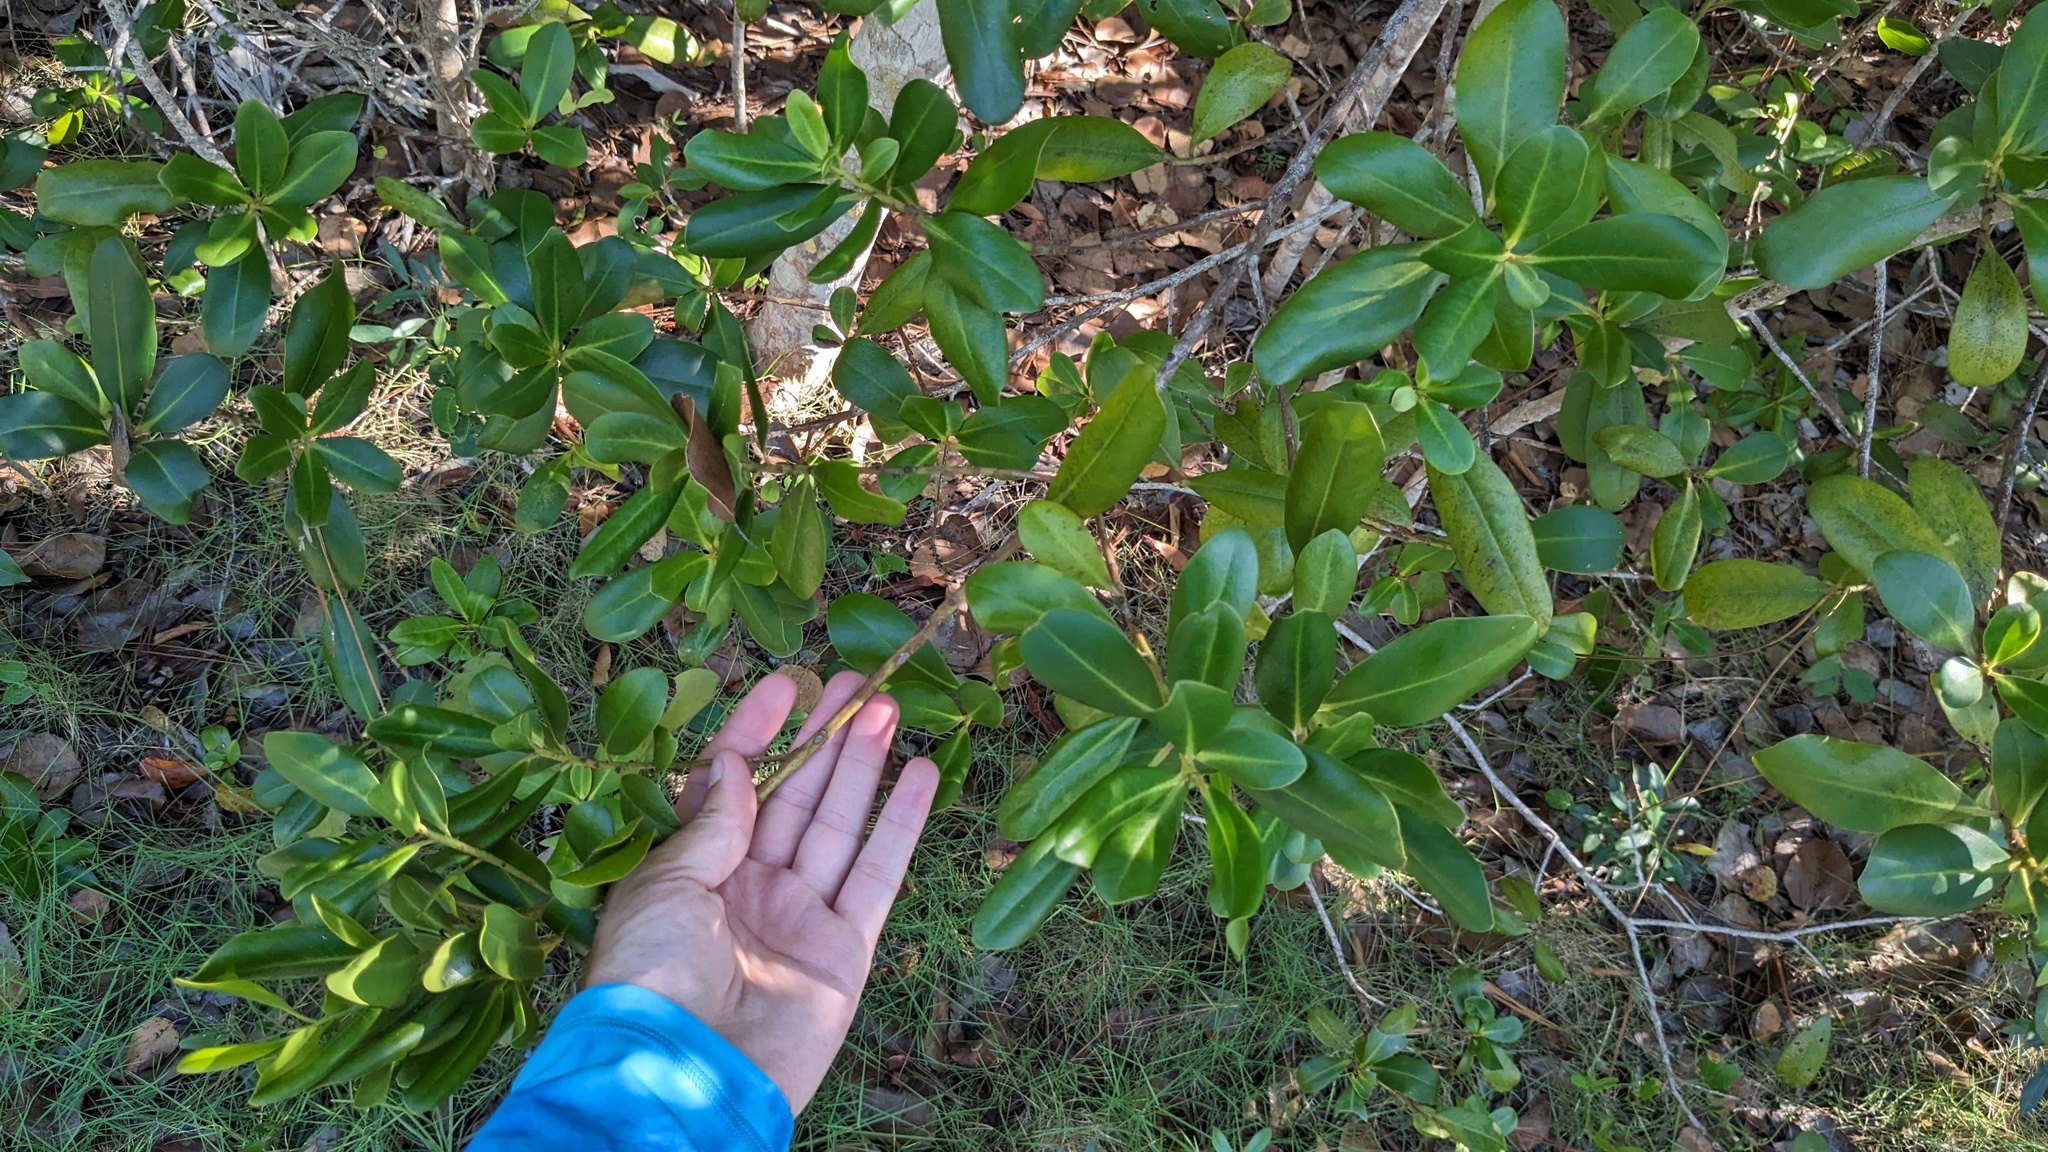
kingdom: Plantae
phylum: Tracheophyta
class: Magnoliopsida
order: Ericales
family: Primulaceae
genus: Myrsine
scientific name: Myrsine floridana
